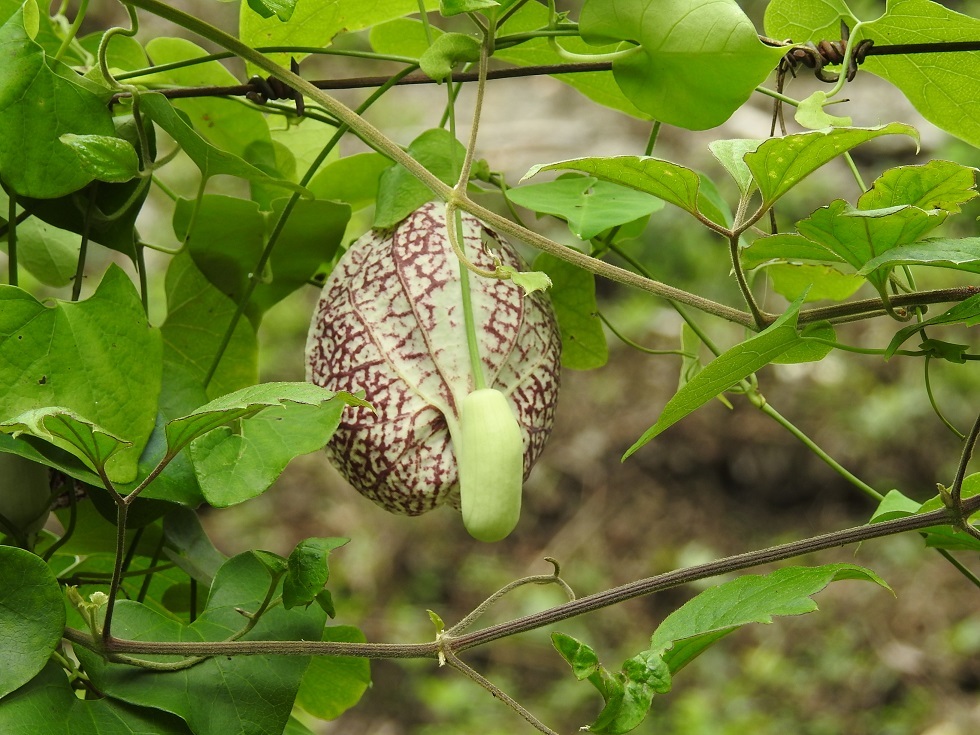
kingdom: Plantae
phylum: Tracheophyta
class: Magnoliopsida
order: Piperales
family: Aristolochiaceae
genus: Aristolochia
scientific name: Aristolochia littoralis
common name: Duck
